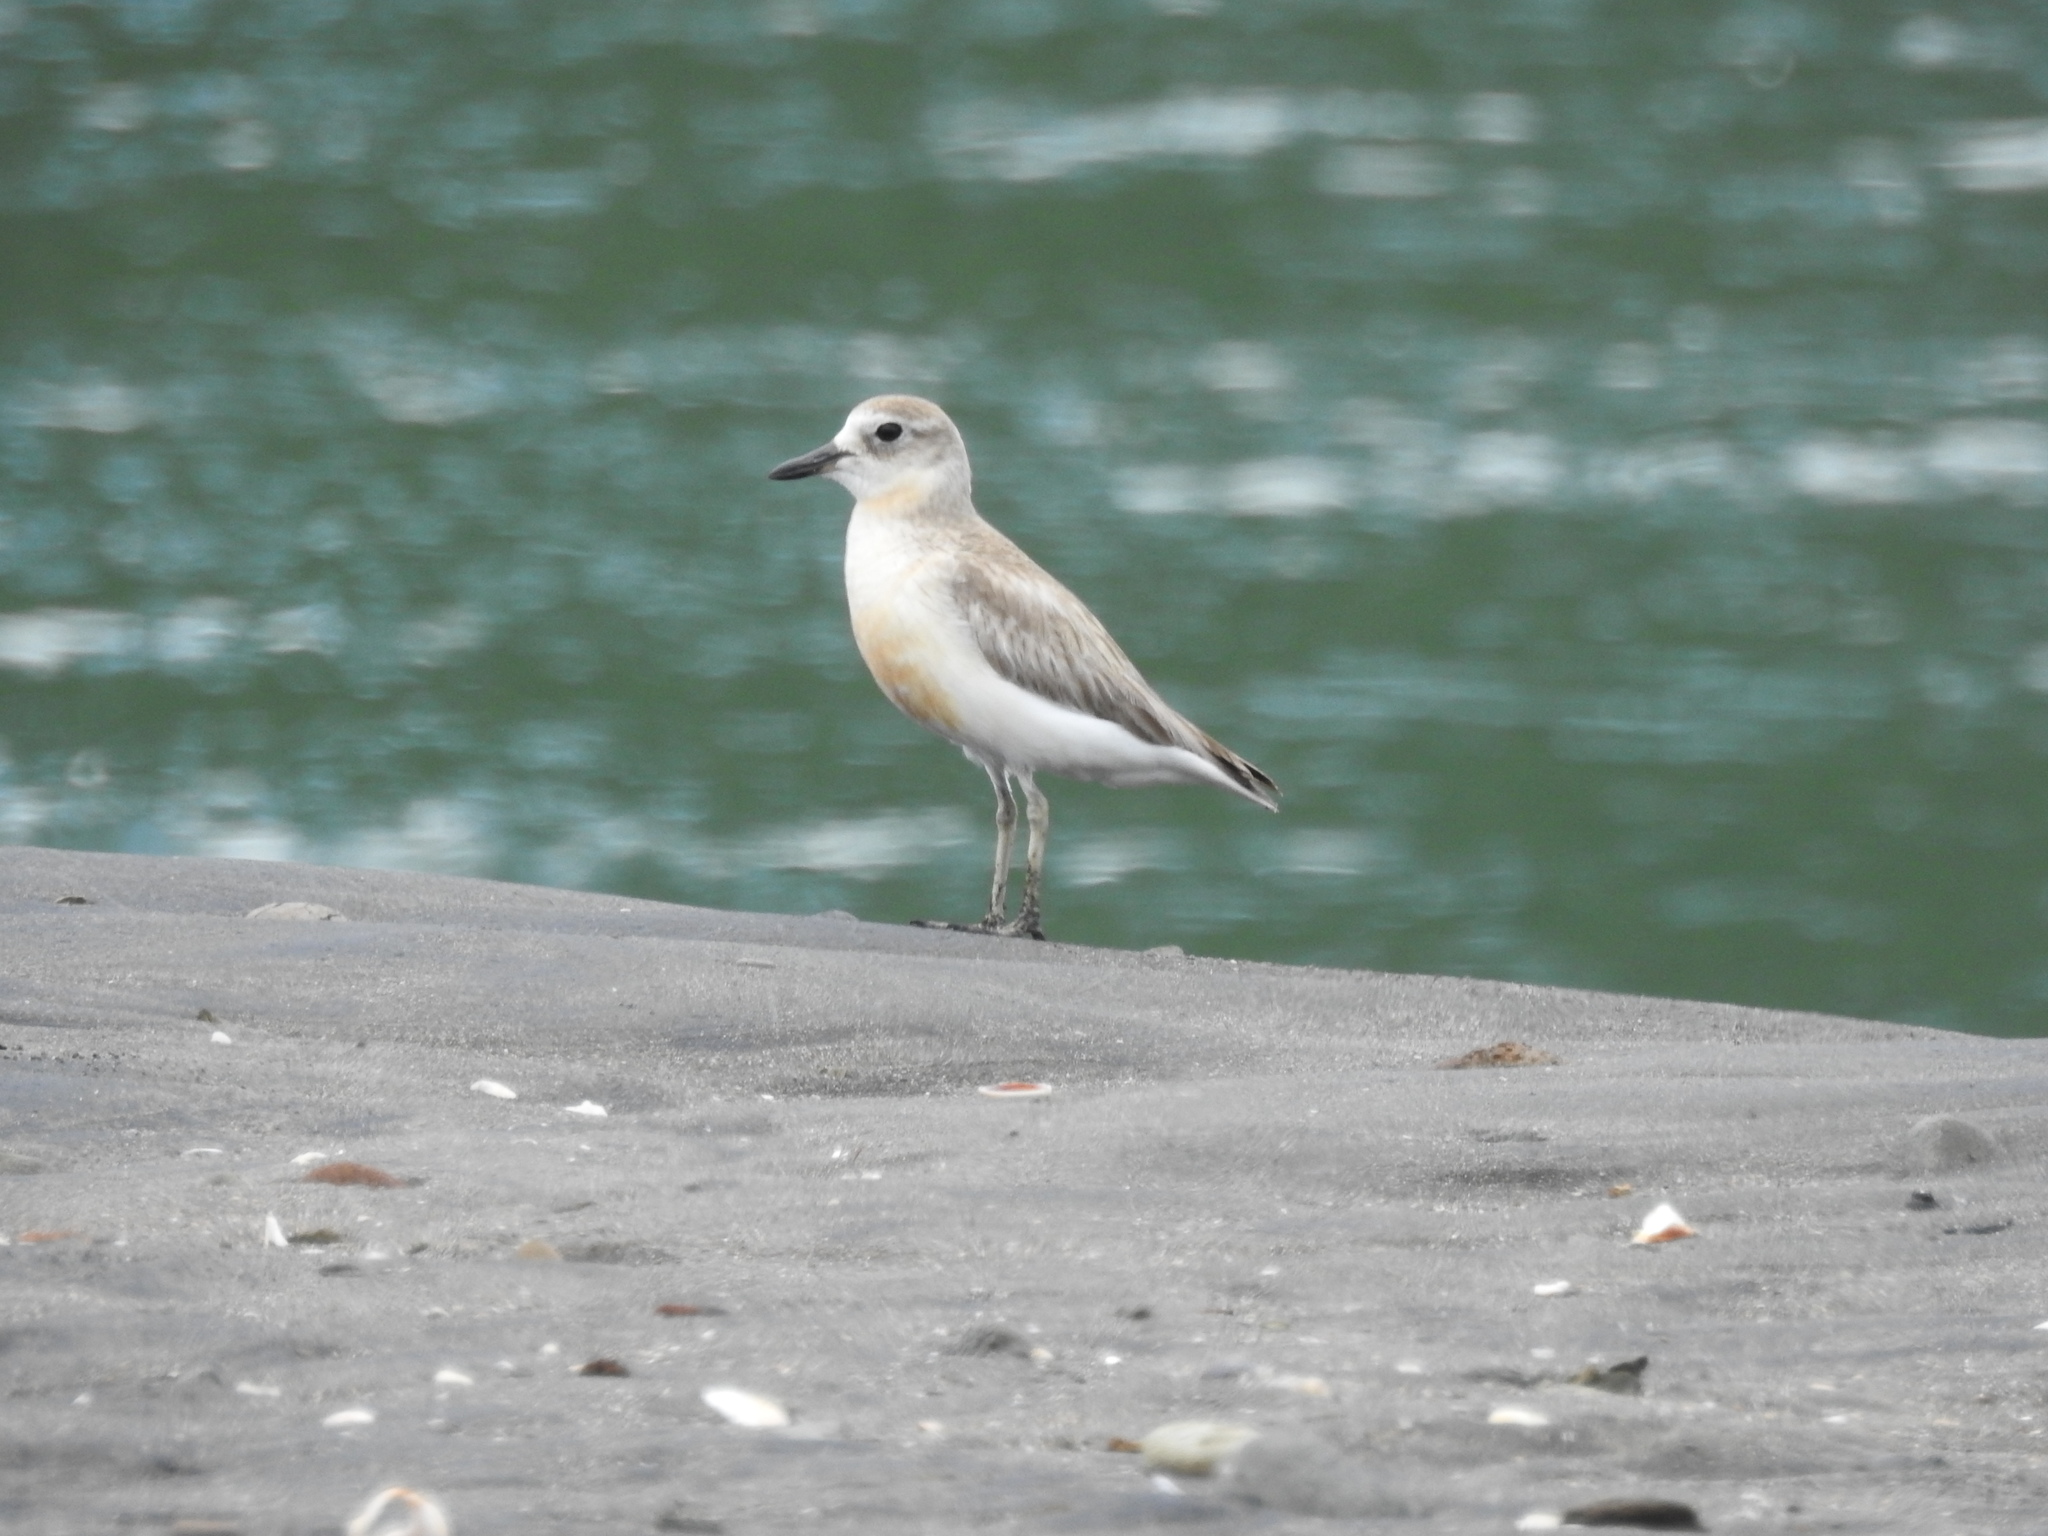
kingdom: Animalia
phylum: Chordata
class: Aves
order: Charadriiformes
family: Charadriidae
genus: Anarhynchus
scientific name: Anarhynchus
